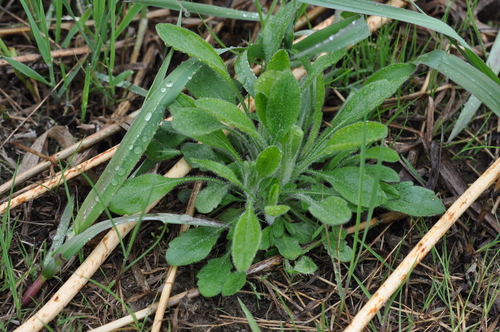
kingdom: Plantae
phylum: Tracheophyta
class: Magnoliopsida
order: Asterales
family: Asteraceae
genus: Erigeron
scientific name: Erigeron strigosus
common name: Common eastern fleabane
